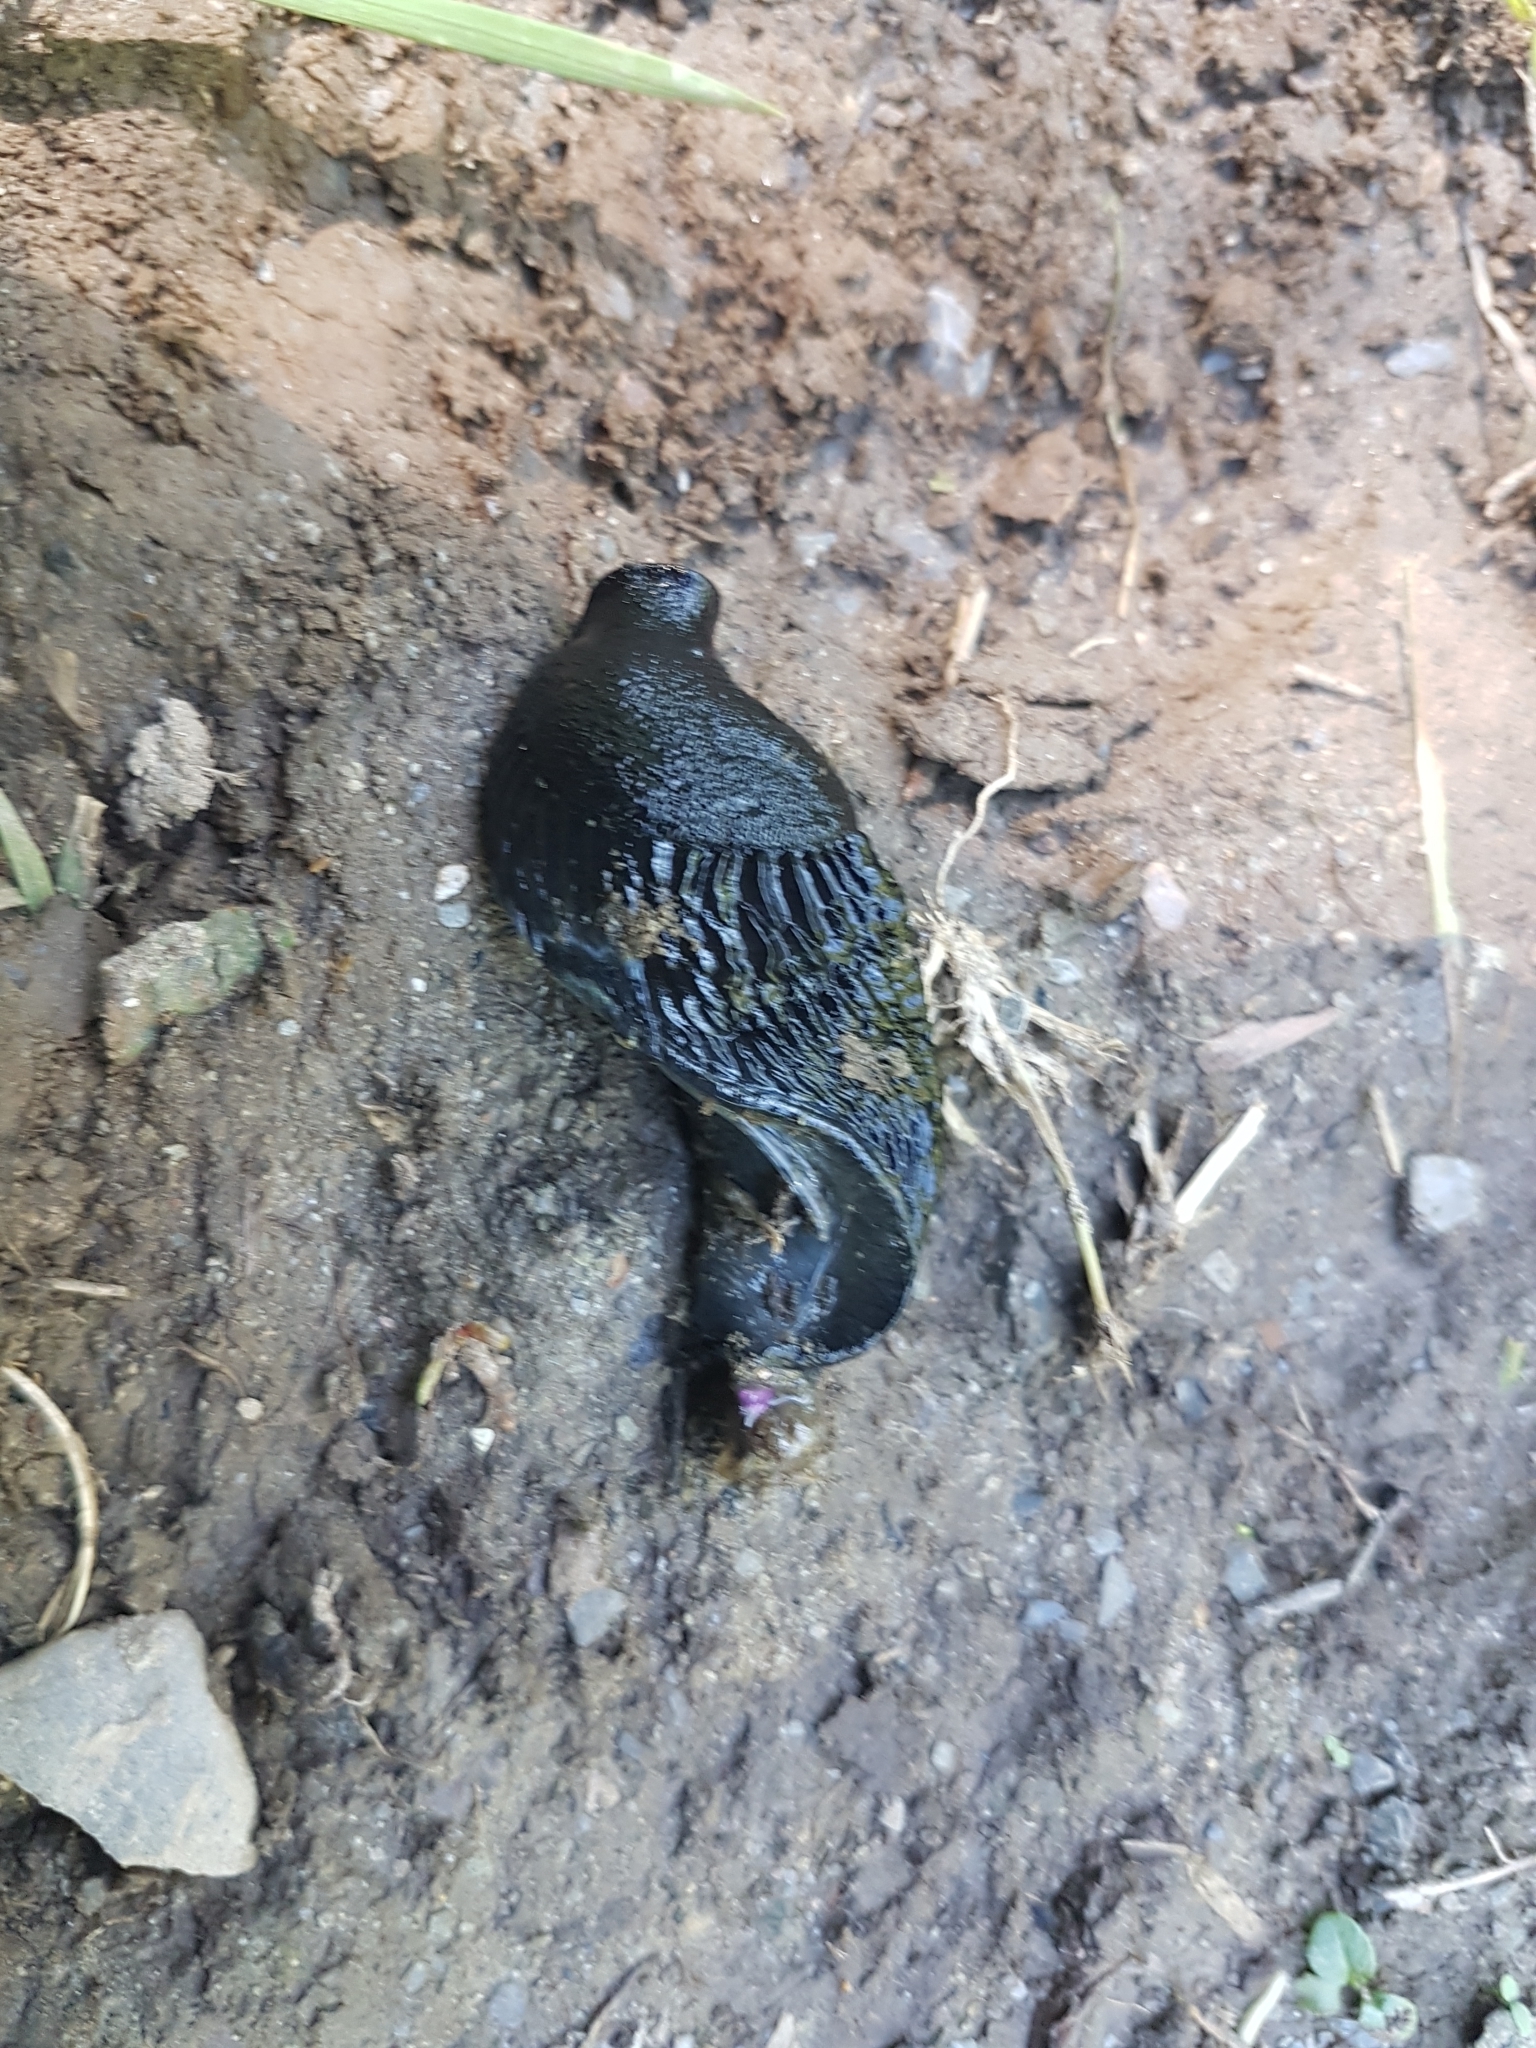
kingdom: Animalia
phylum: Mollusca
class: Gastropoda
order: Stylommatophora
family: Arionidae
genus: Arion
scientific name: Arion ater
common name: Black arion
